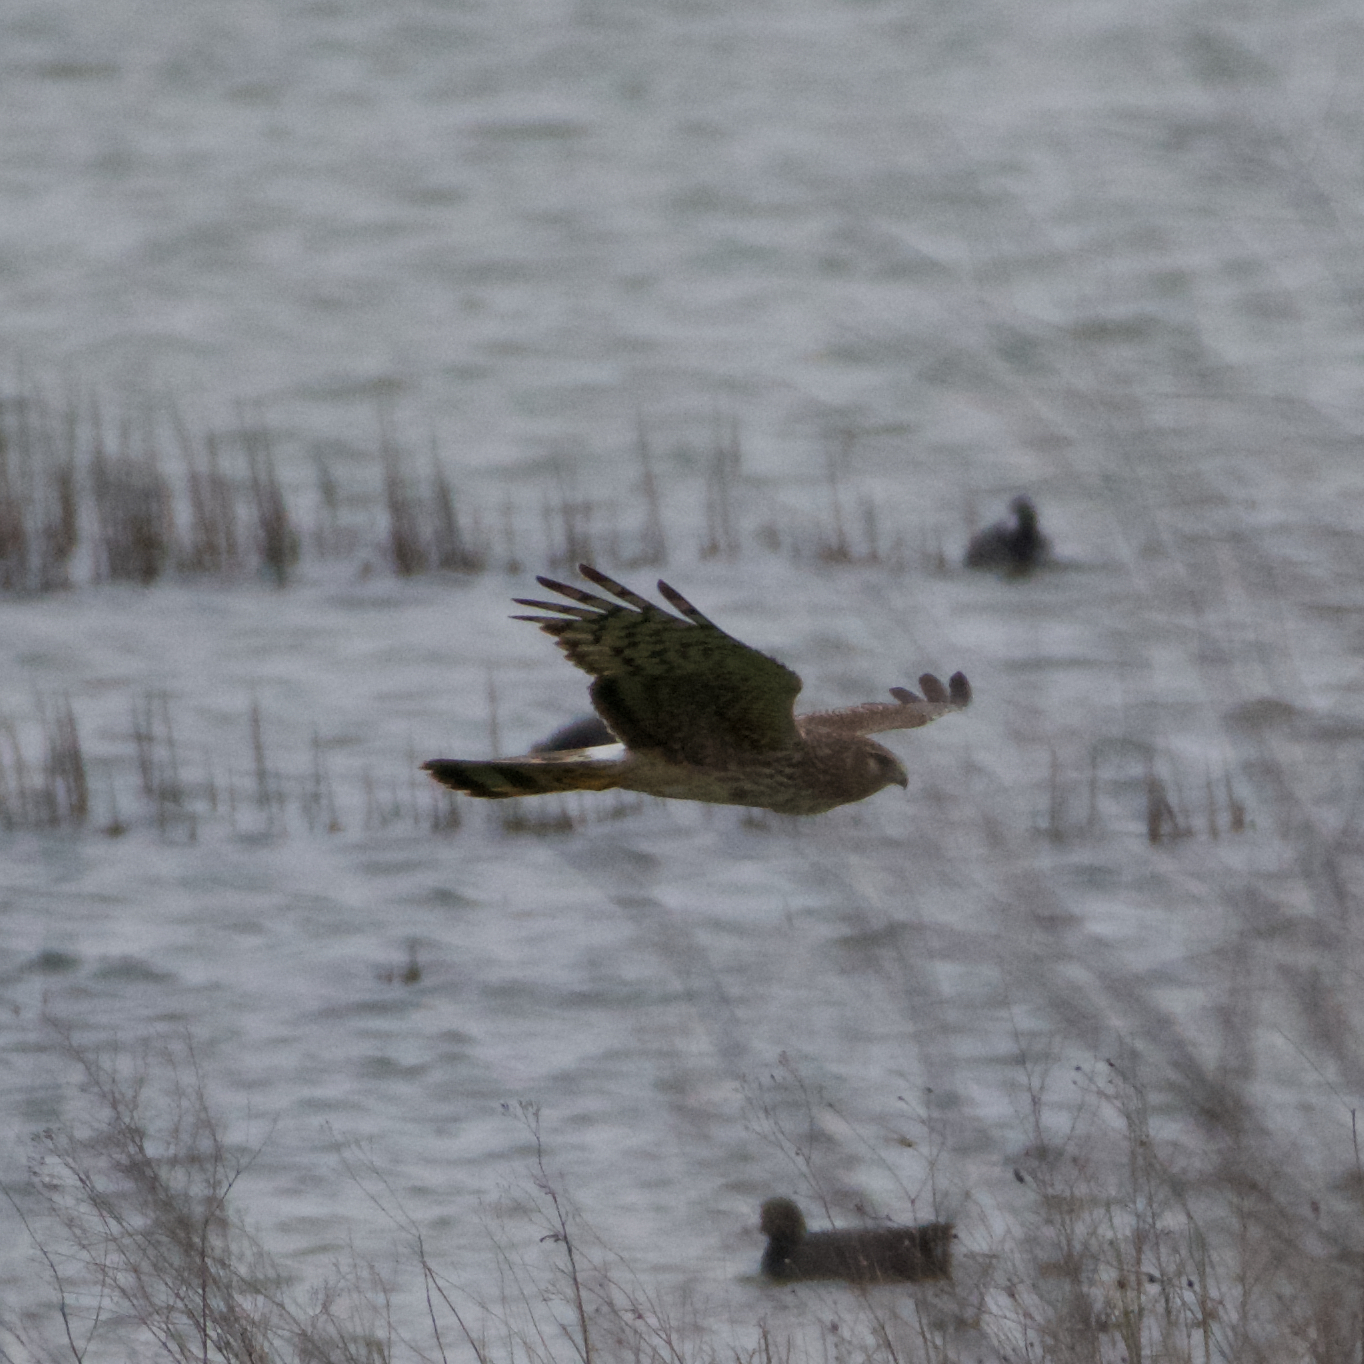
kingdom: Animalia
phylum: Chordata
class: Aves
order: Accipitriformes
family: Accipitridae
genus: Circus
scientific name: Circus cyaneus
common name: Hen harrier
